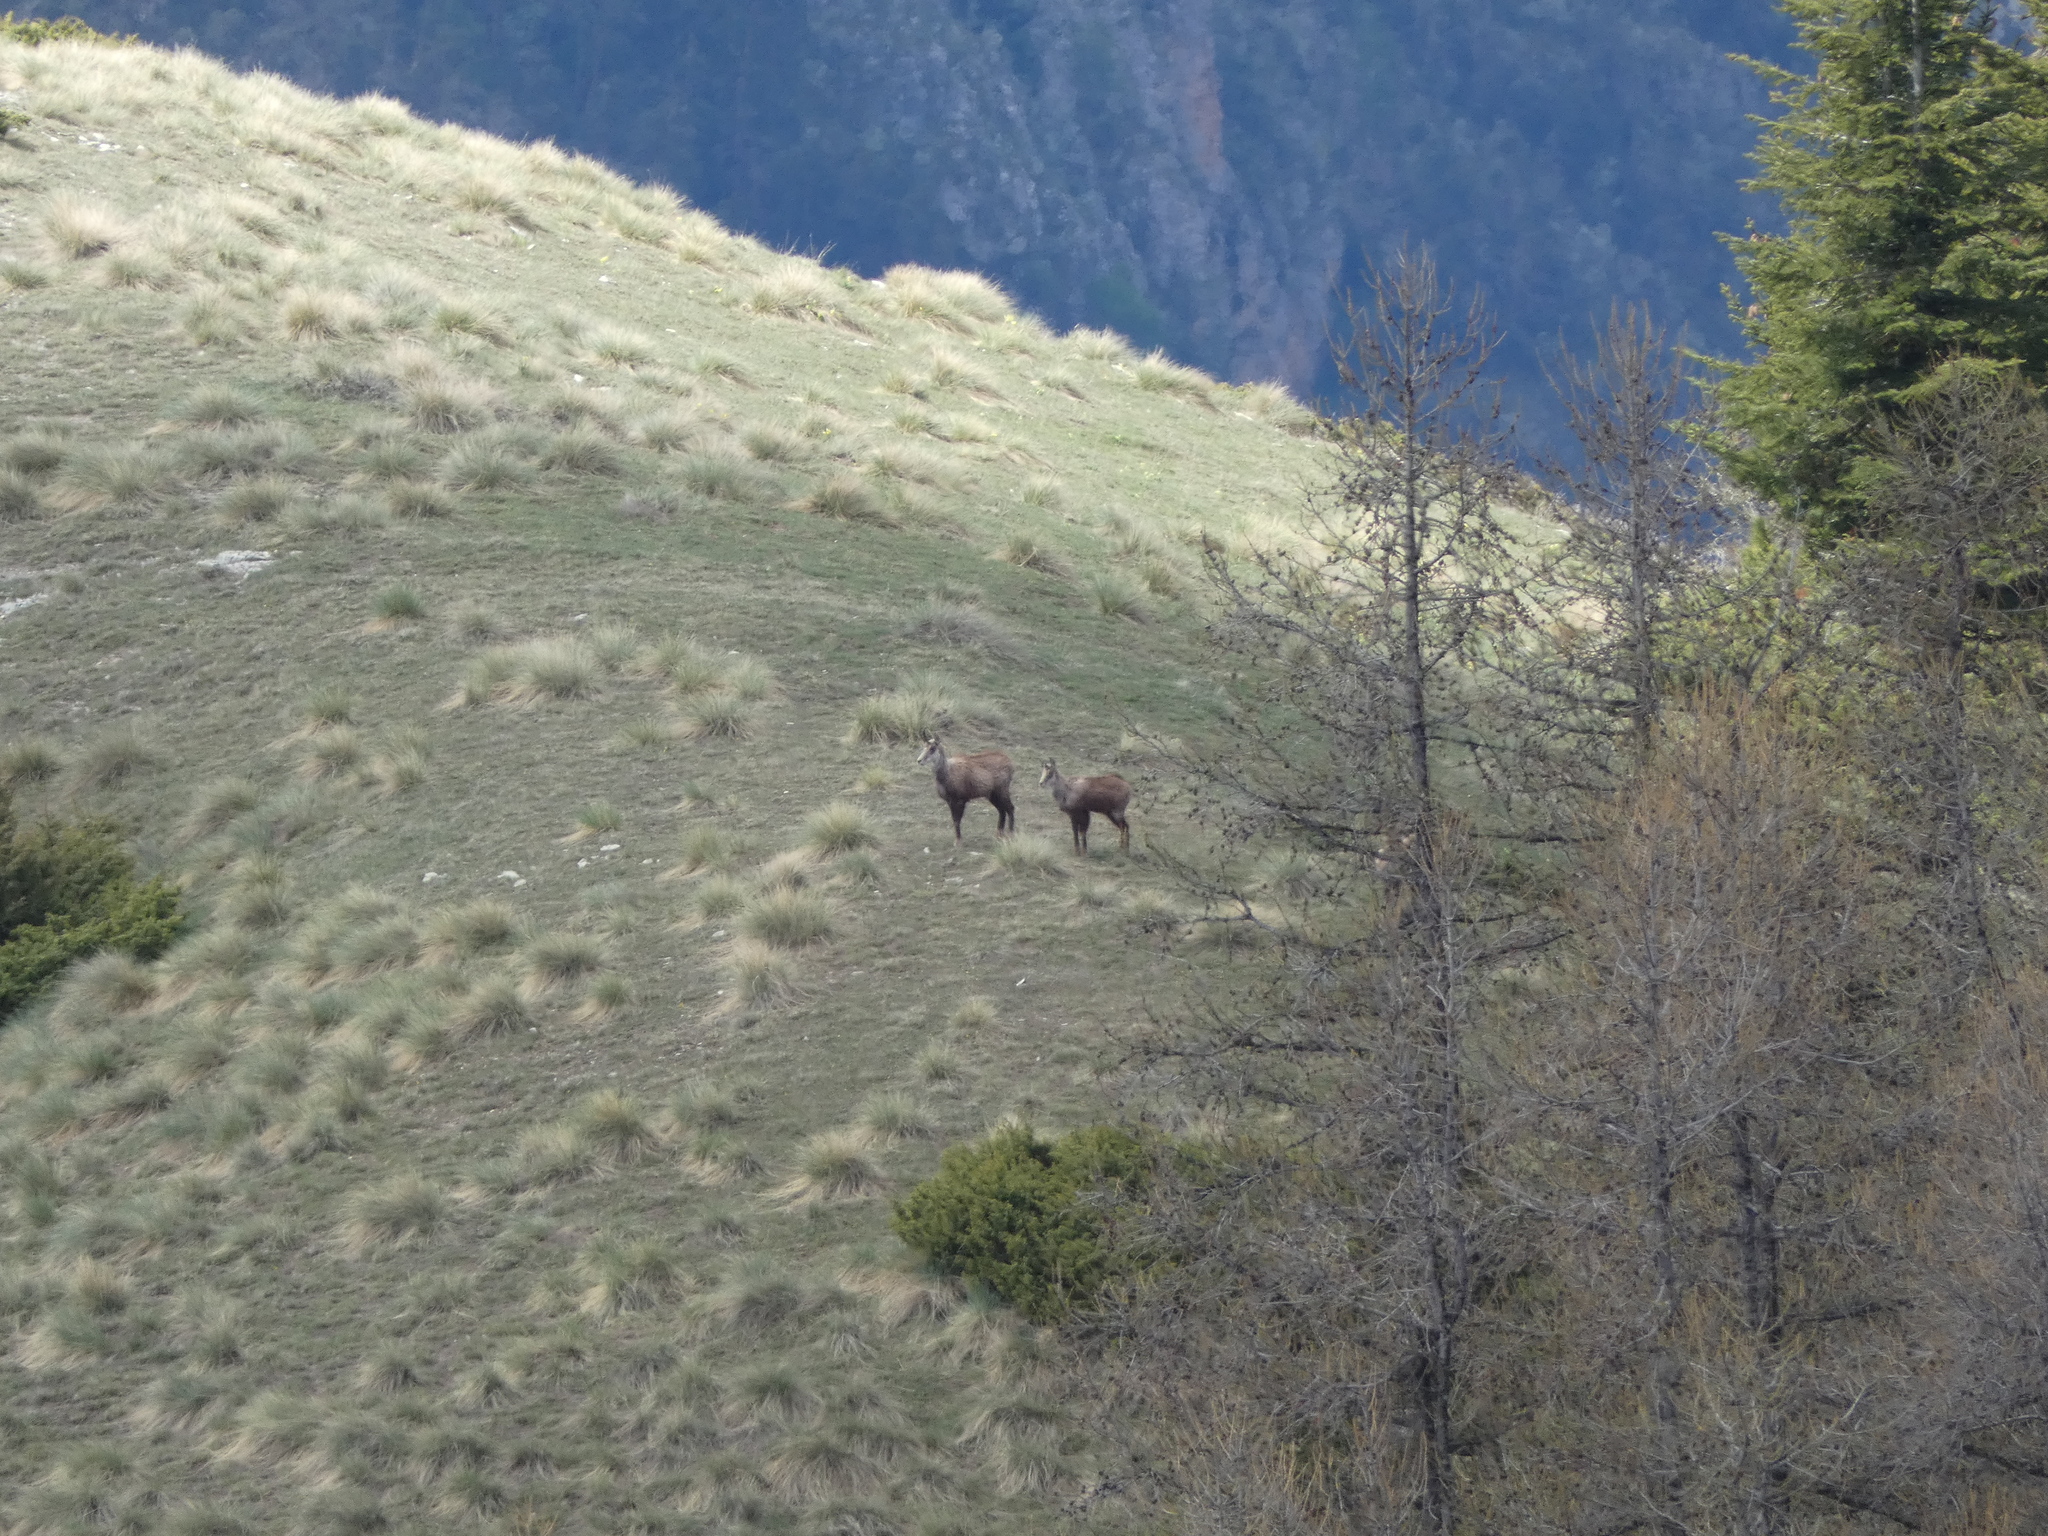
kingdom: Animalia
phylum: Chordata
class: Mammalia
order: Artiodactyla
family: Bovidae
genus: Rupicapra
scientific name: Rupicapra rupicapra
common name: Chamois
